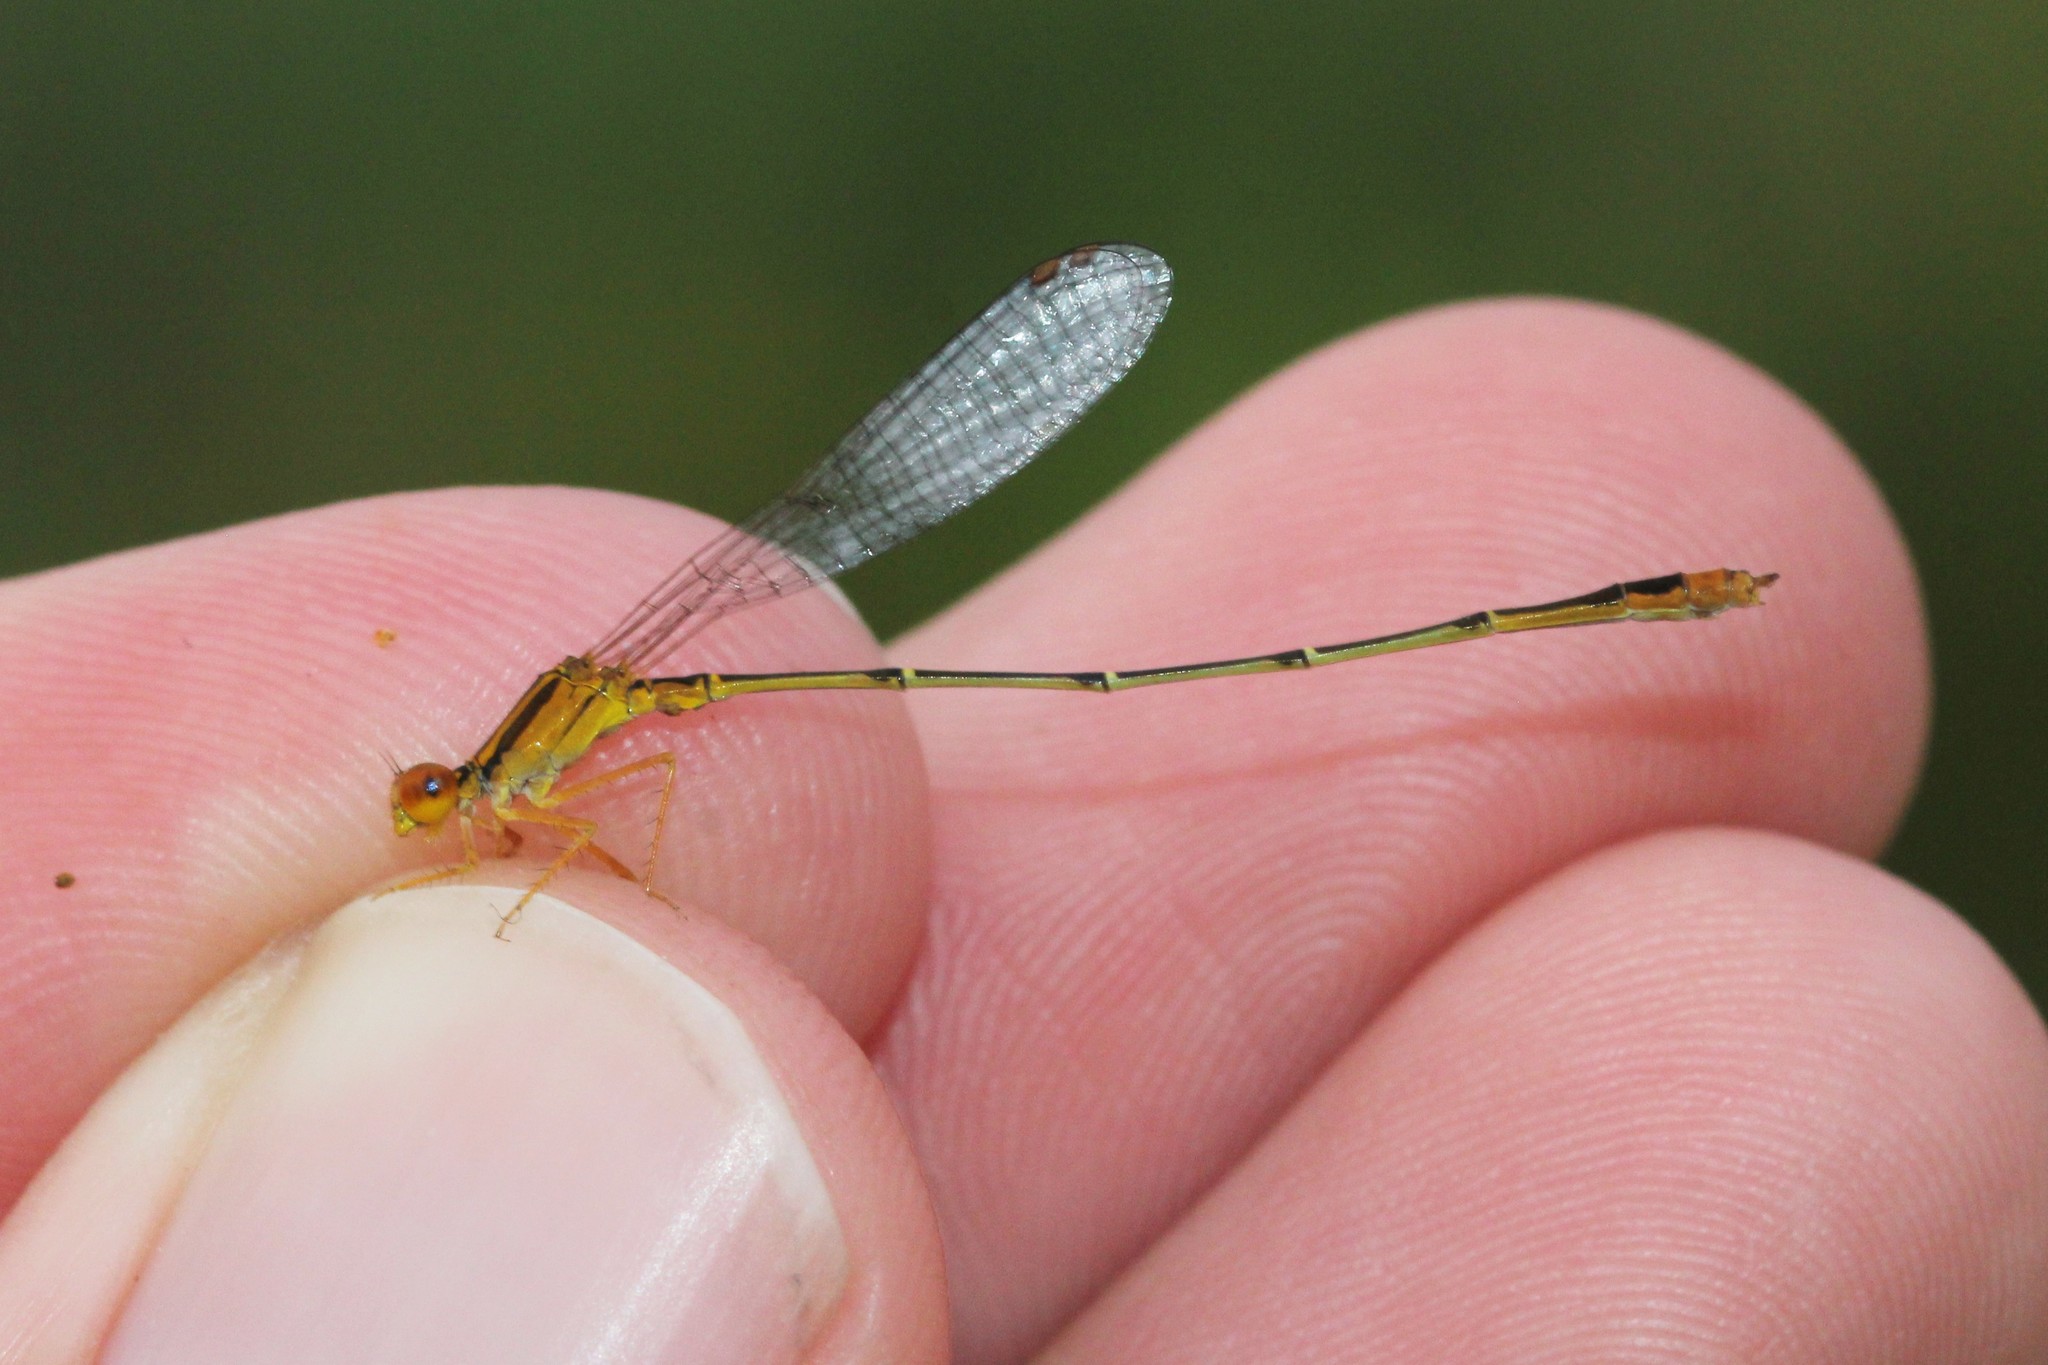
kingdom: Animalia
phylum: Arthropoda
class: Insecta
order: Odonata
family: Coenagrionidae
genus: Enallagma
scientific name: Enallagma signatum
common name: Orange bluet
